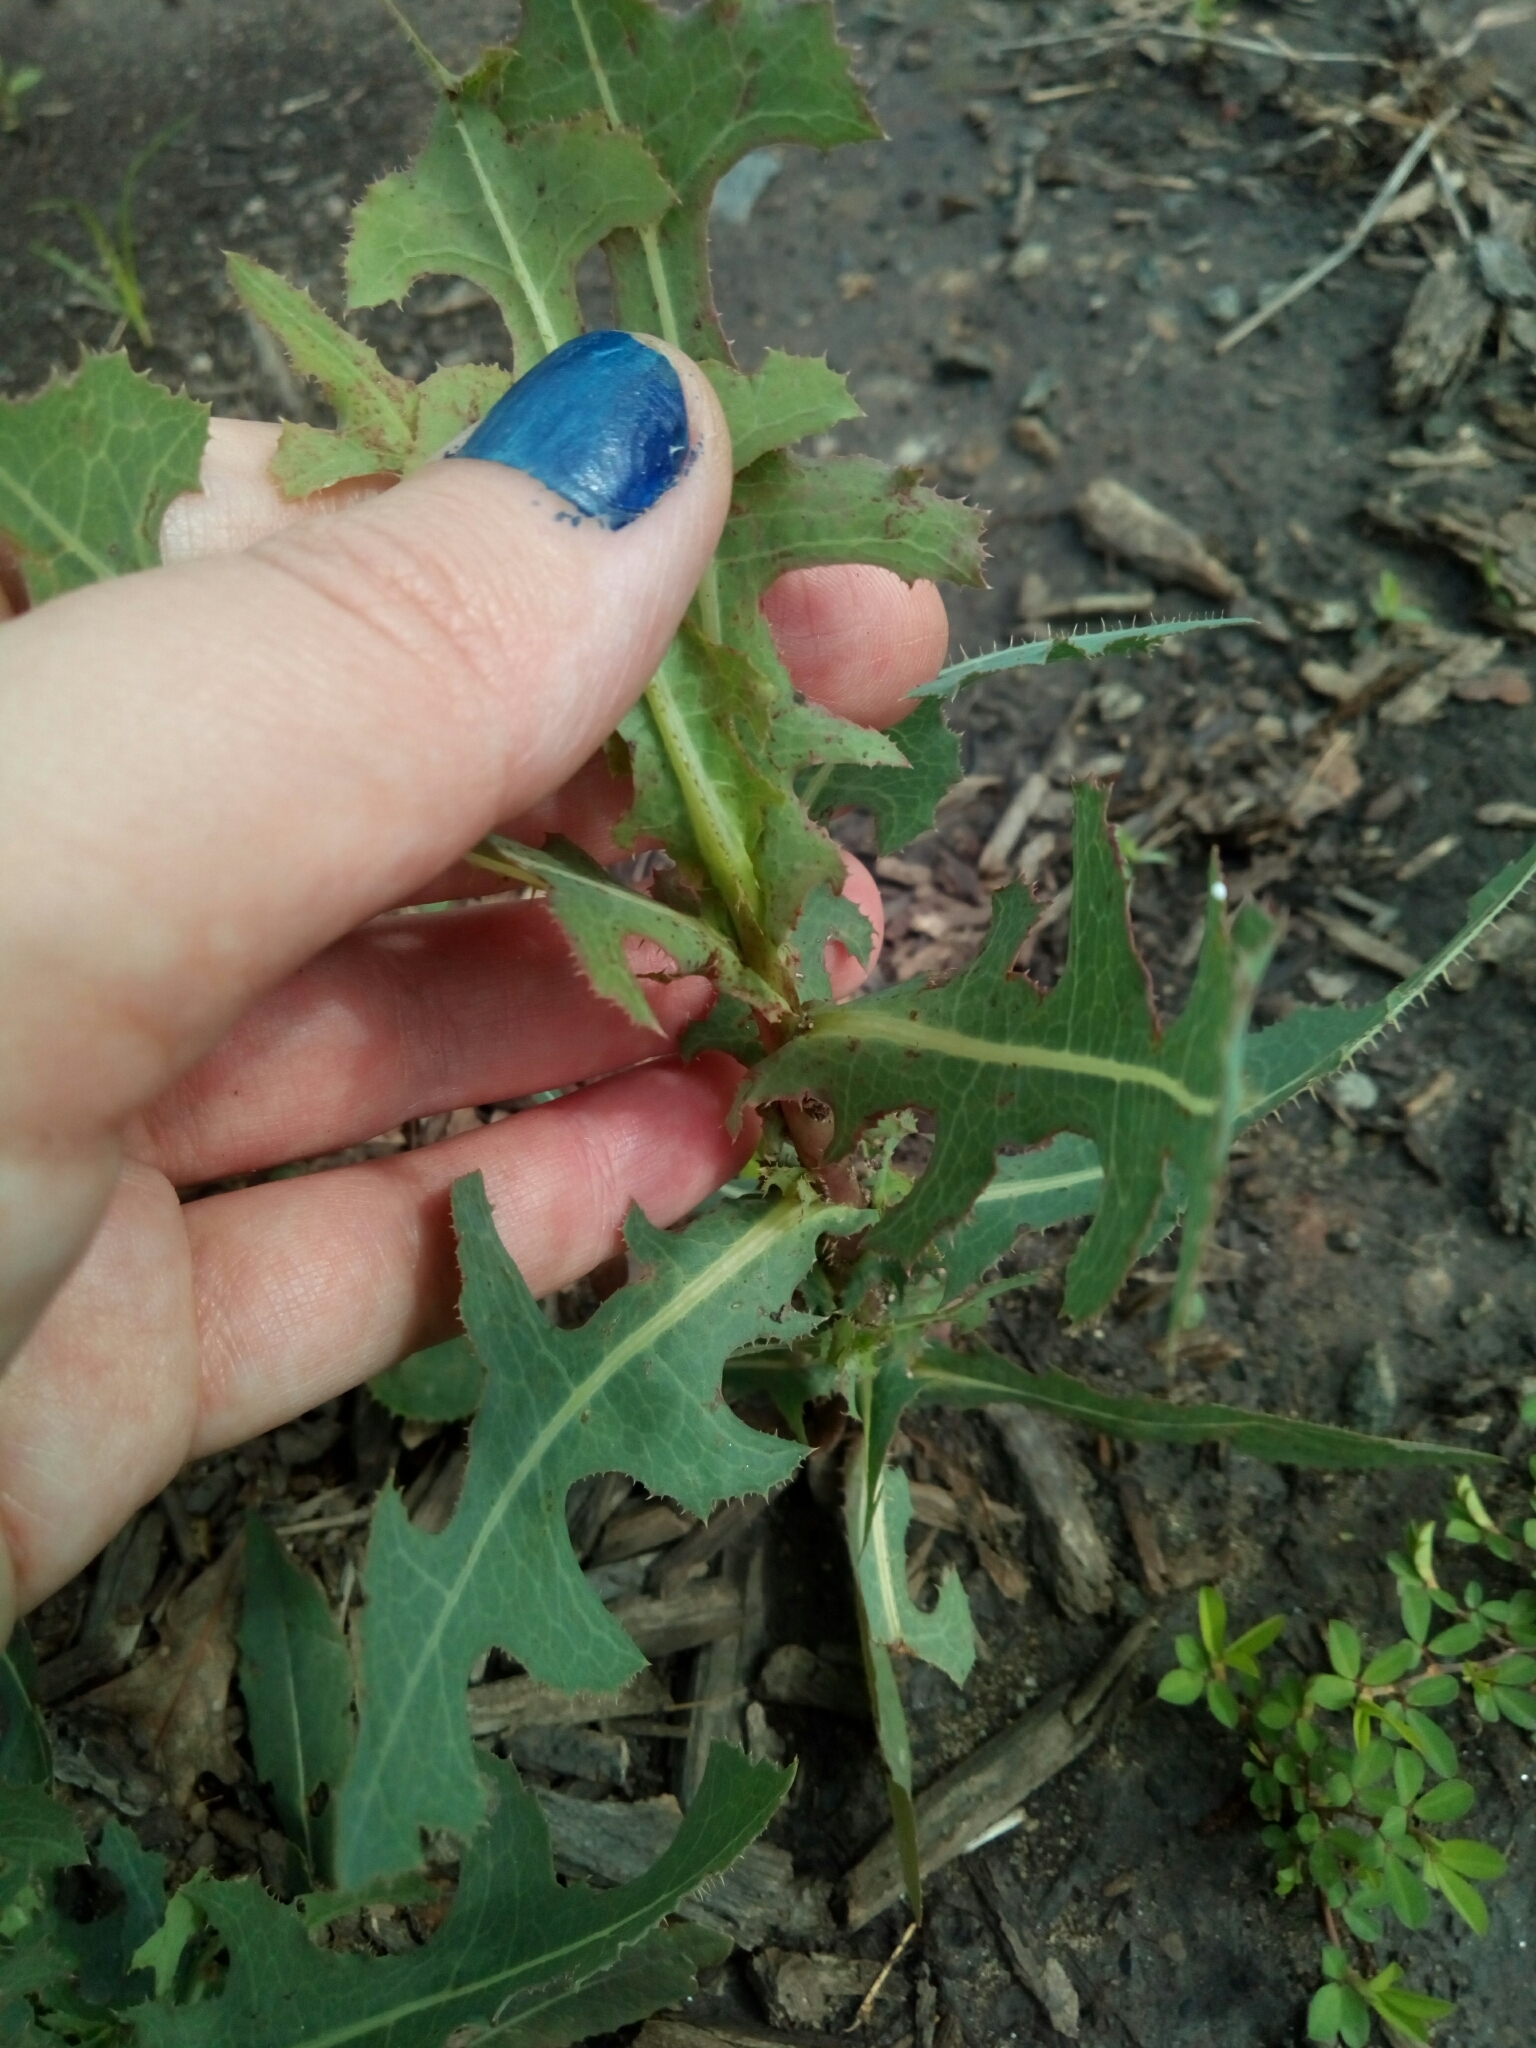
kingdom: Plantae
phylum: Tracheophyta
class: Magnoliopsida
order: Asterales
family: Asteraceae
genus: Lactuca
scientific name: Lactuca serriola
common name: Prickly lettuce
